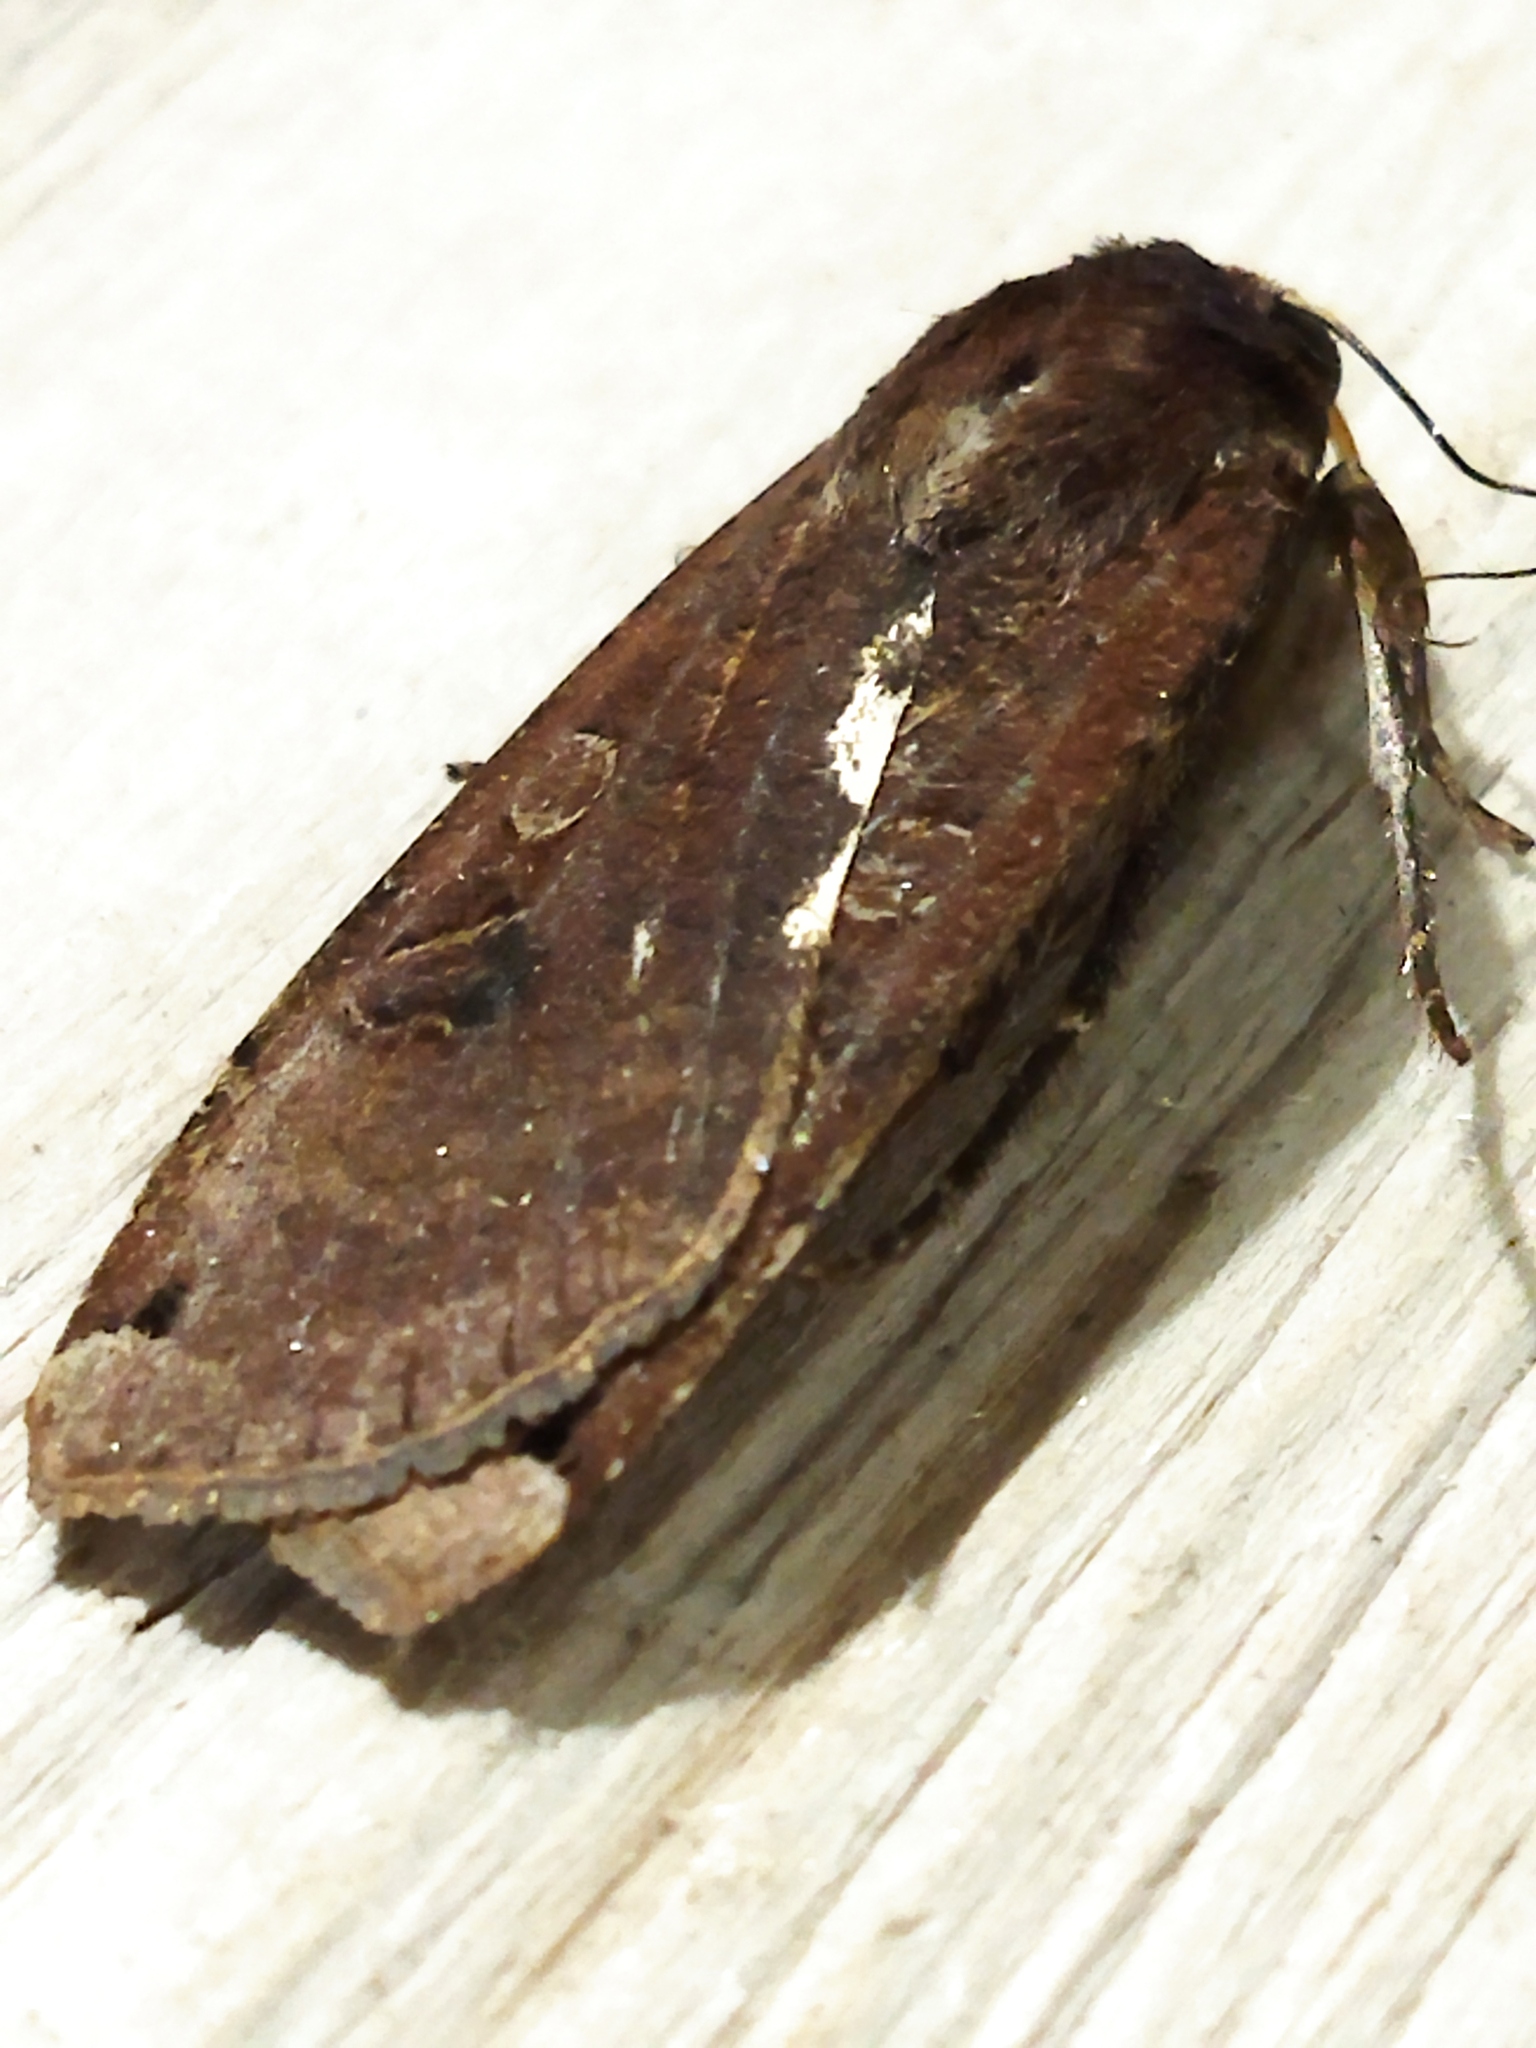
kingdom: Animalia
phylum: Arthropoda
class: Insecta
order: Lepidoptera
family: Noctuidae
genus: Noctua
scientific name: Noctua pronuba
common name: Large yellow underwing
